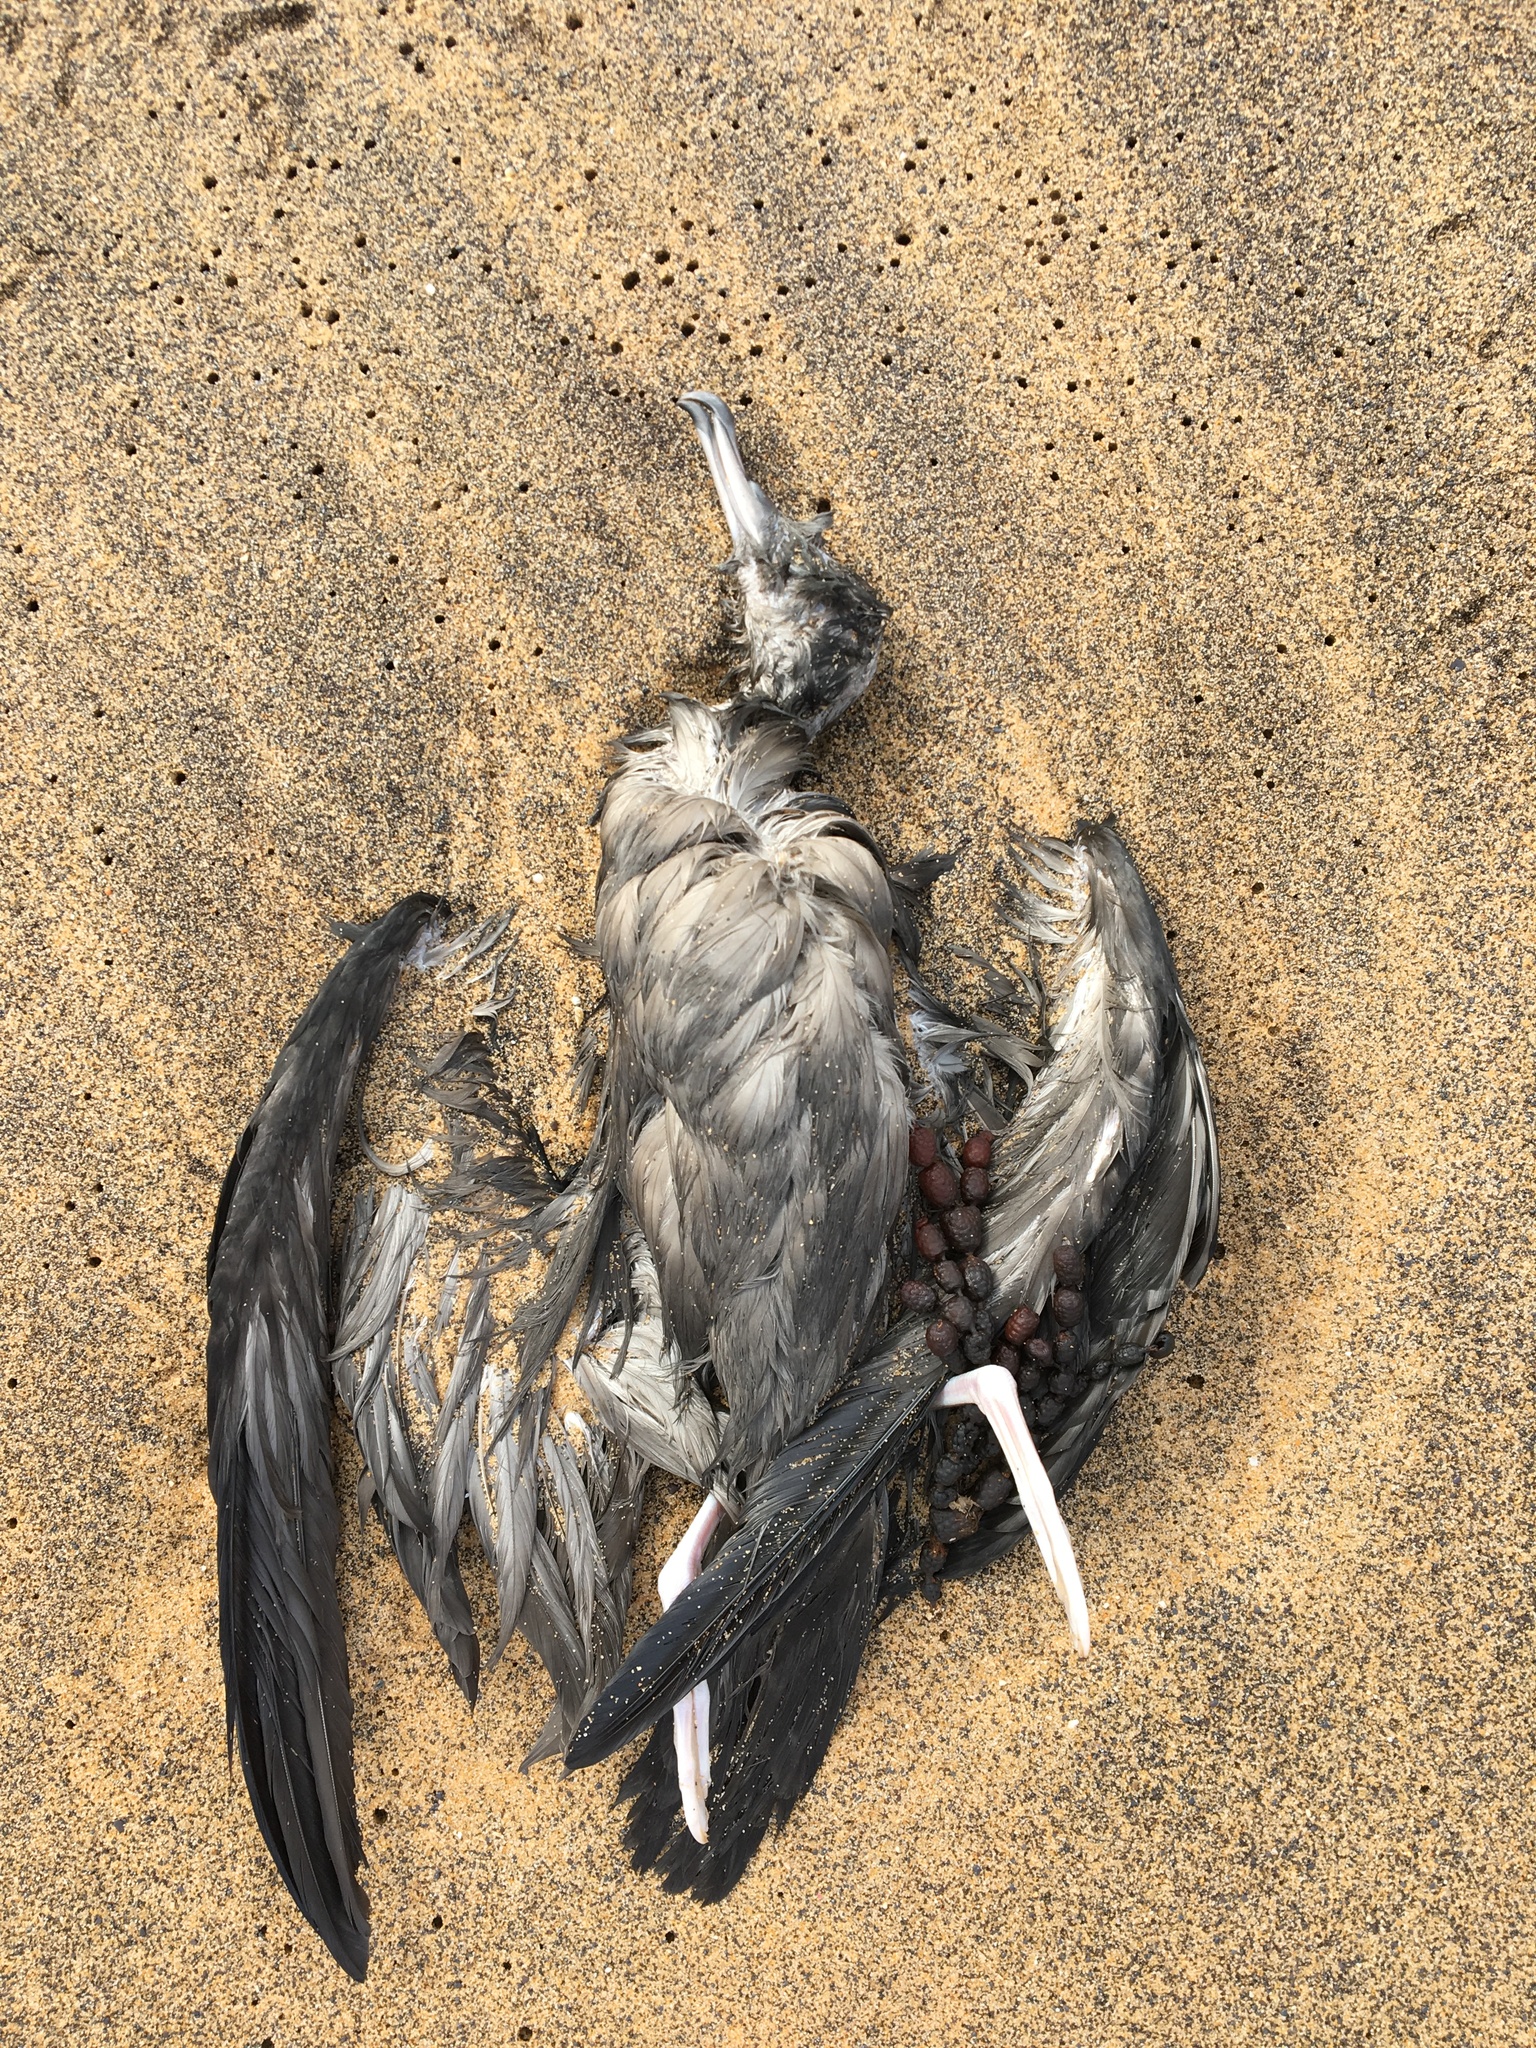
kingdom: Animalia
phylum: Chordata
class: Aves
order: Procellariiformes
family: Procellariidae
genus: Puffinus
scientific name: Puffinus pacificus
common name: Wedge-tailed shearwater
